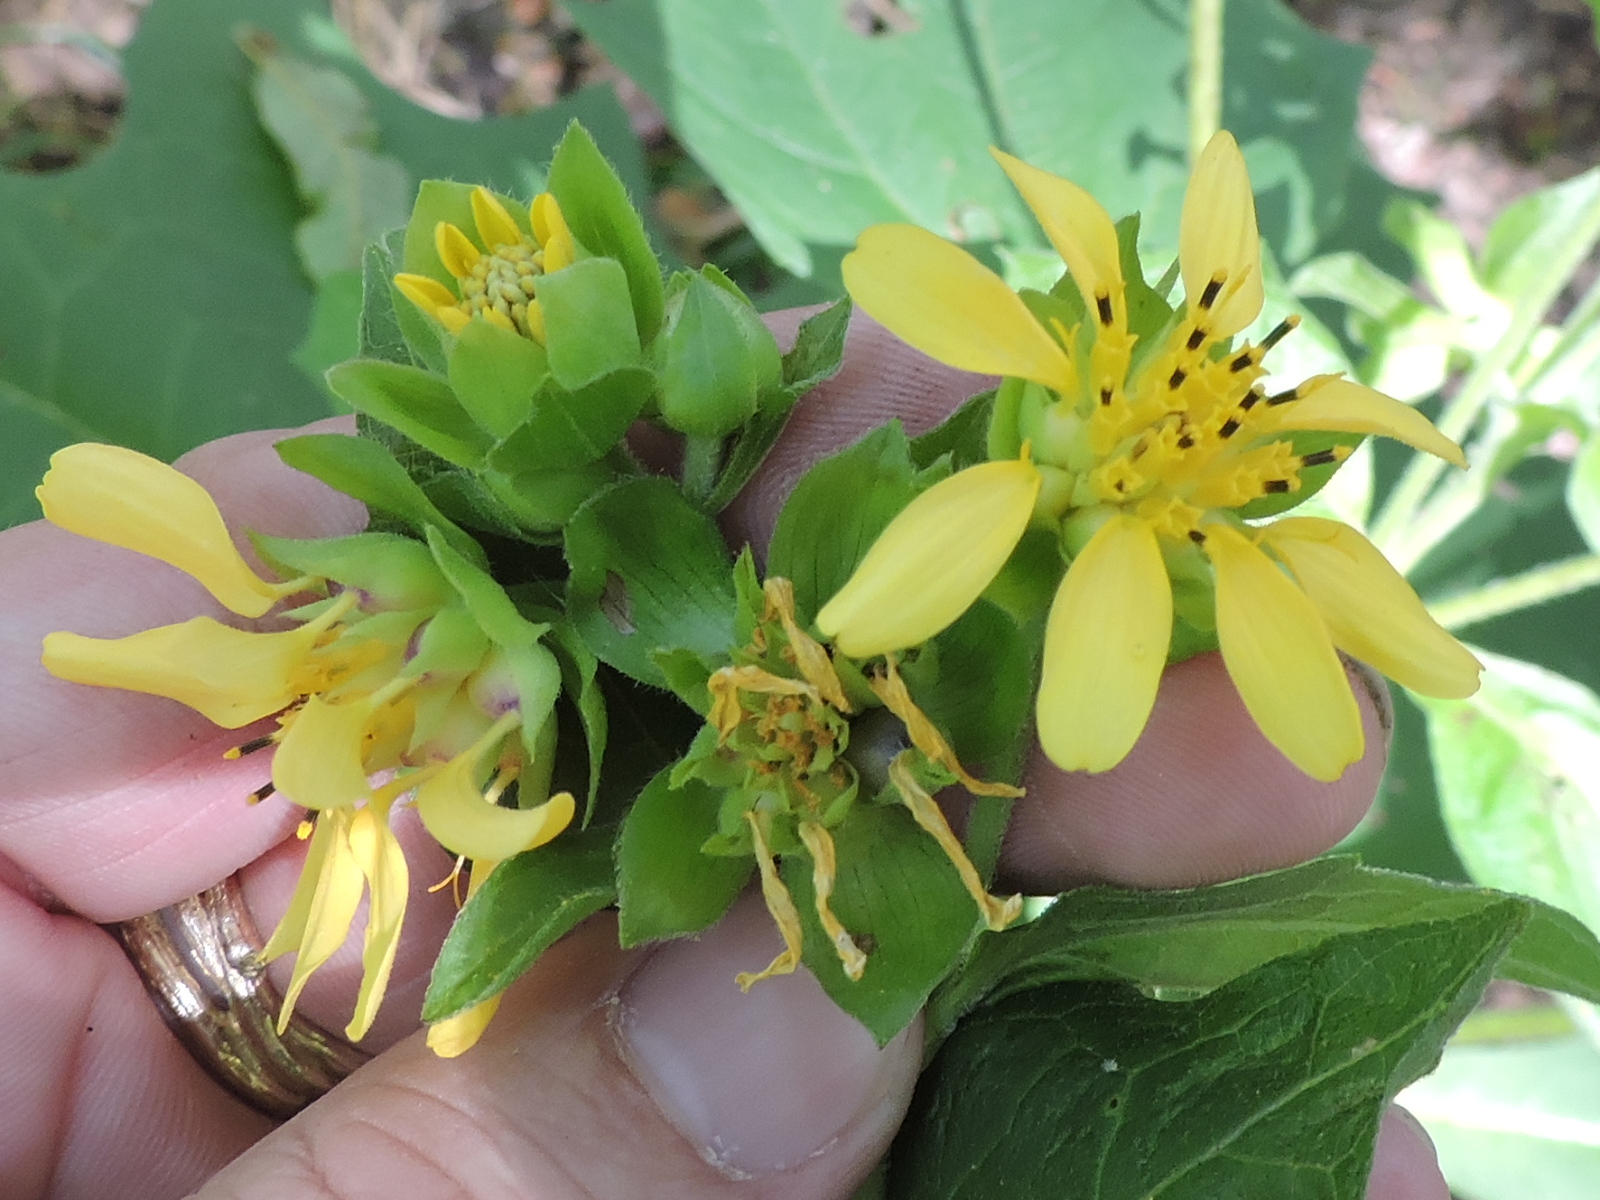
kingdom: Plantae
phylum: Tracheophyta
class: Magnoliopsida
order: Asterales
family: Asteraceae
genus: Smallanthus
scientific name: Smallanthus uvedalia
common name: Bear's-foot
